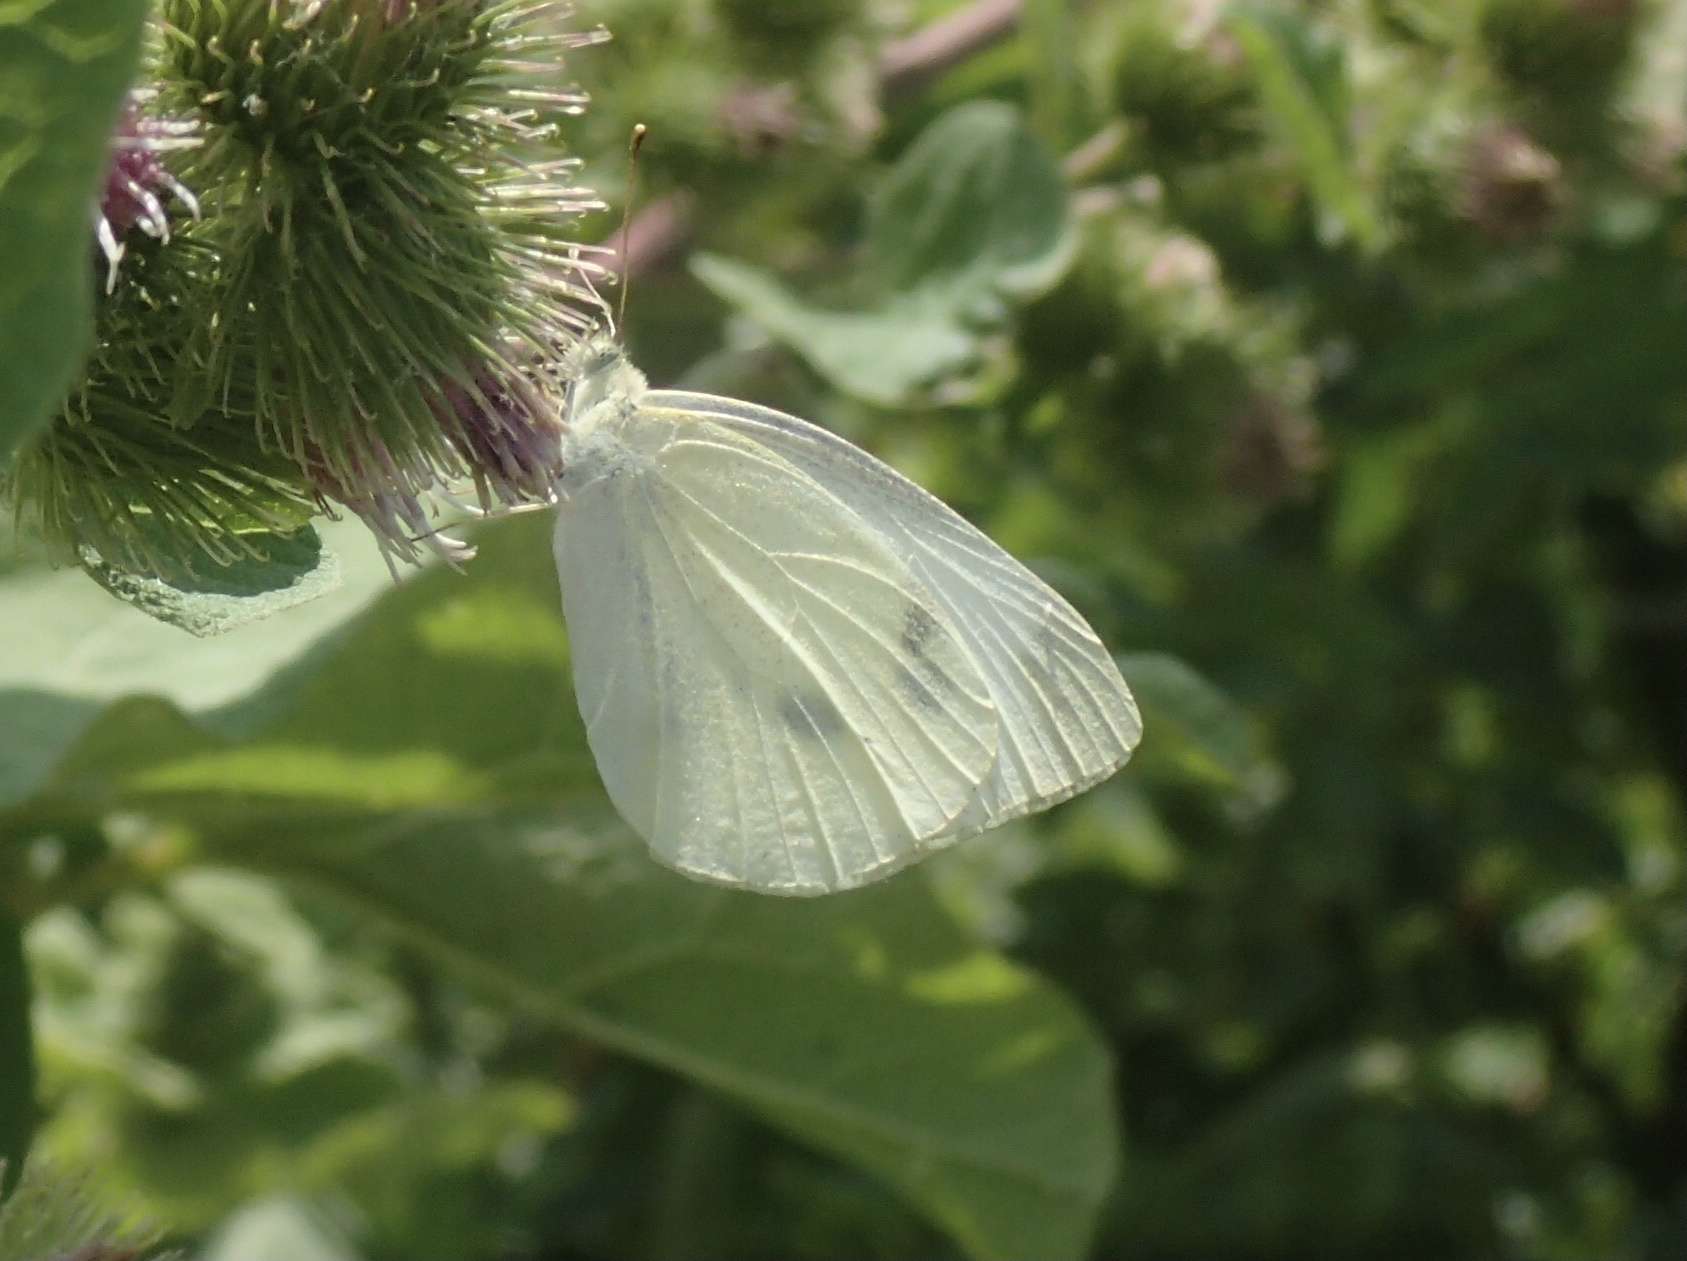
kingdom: Animalia
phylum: Arthropoda
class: Insecta
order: Lepidoptera
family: Pieridae
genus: Pieris
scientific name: Pieris rapae
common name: Small white
